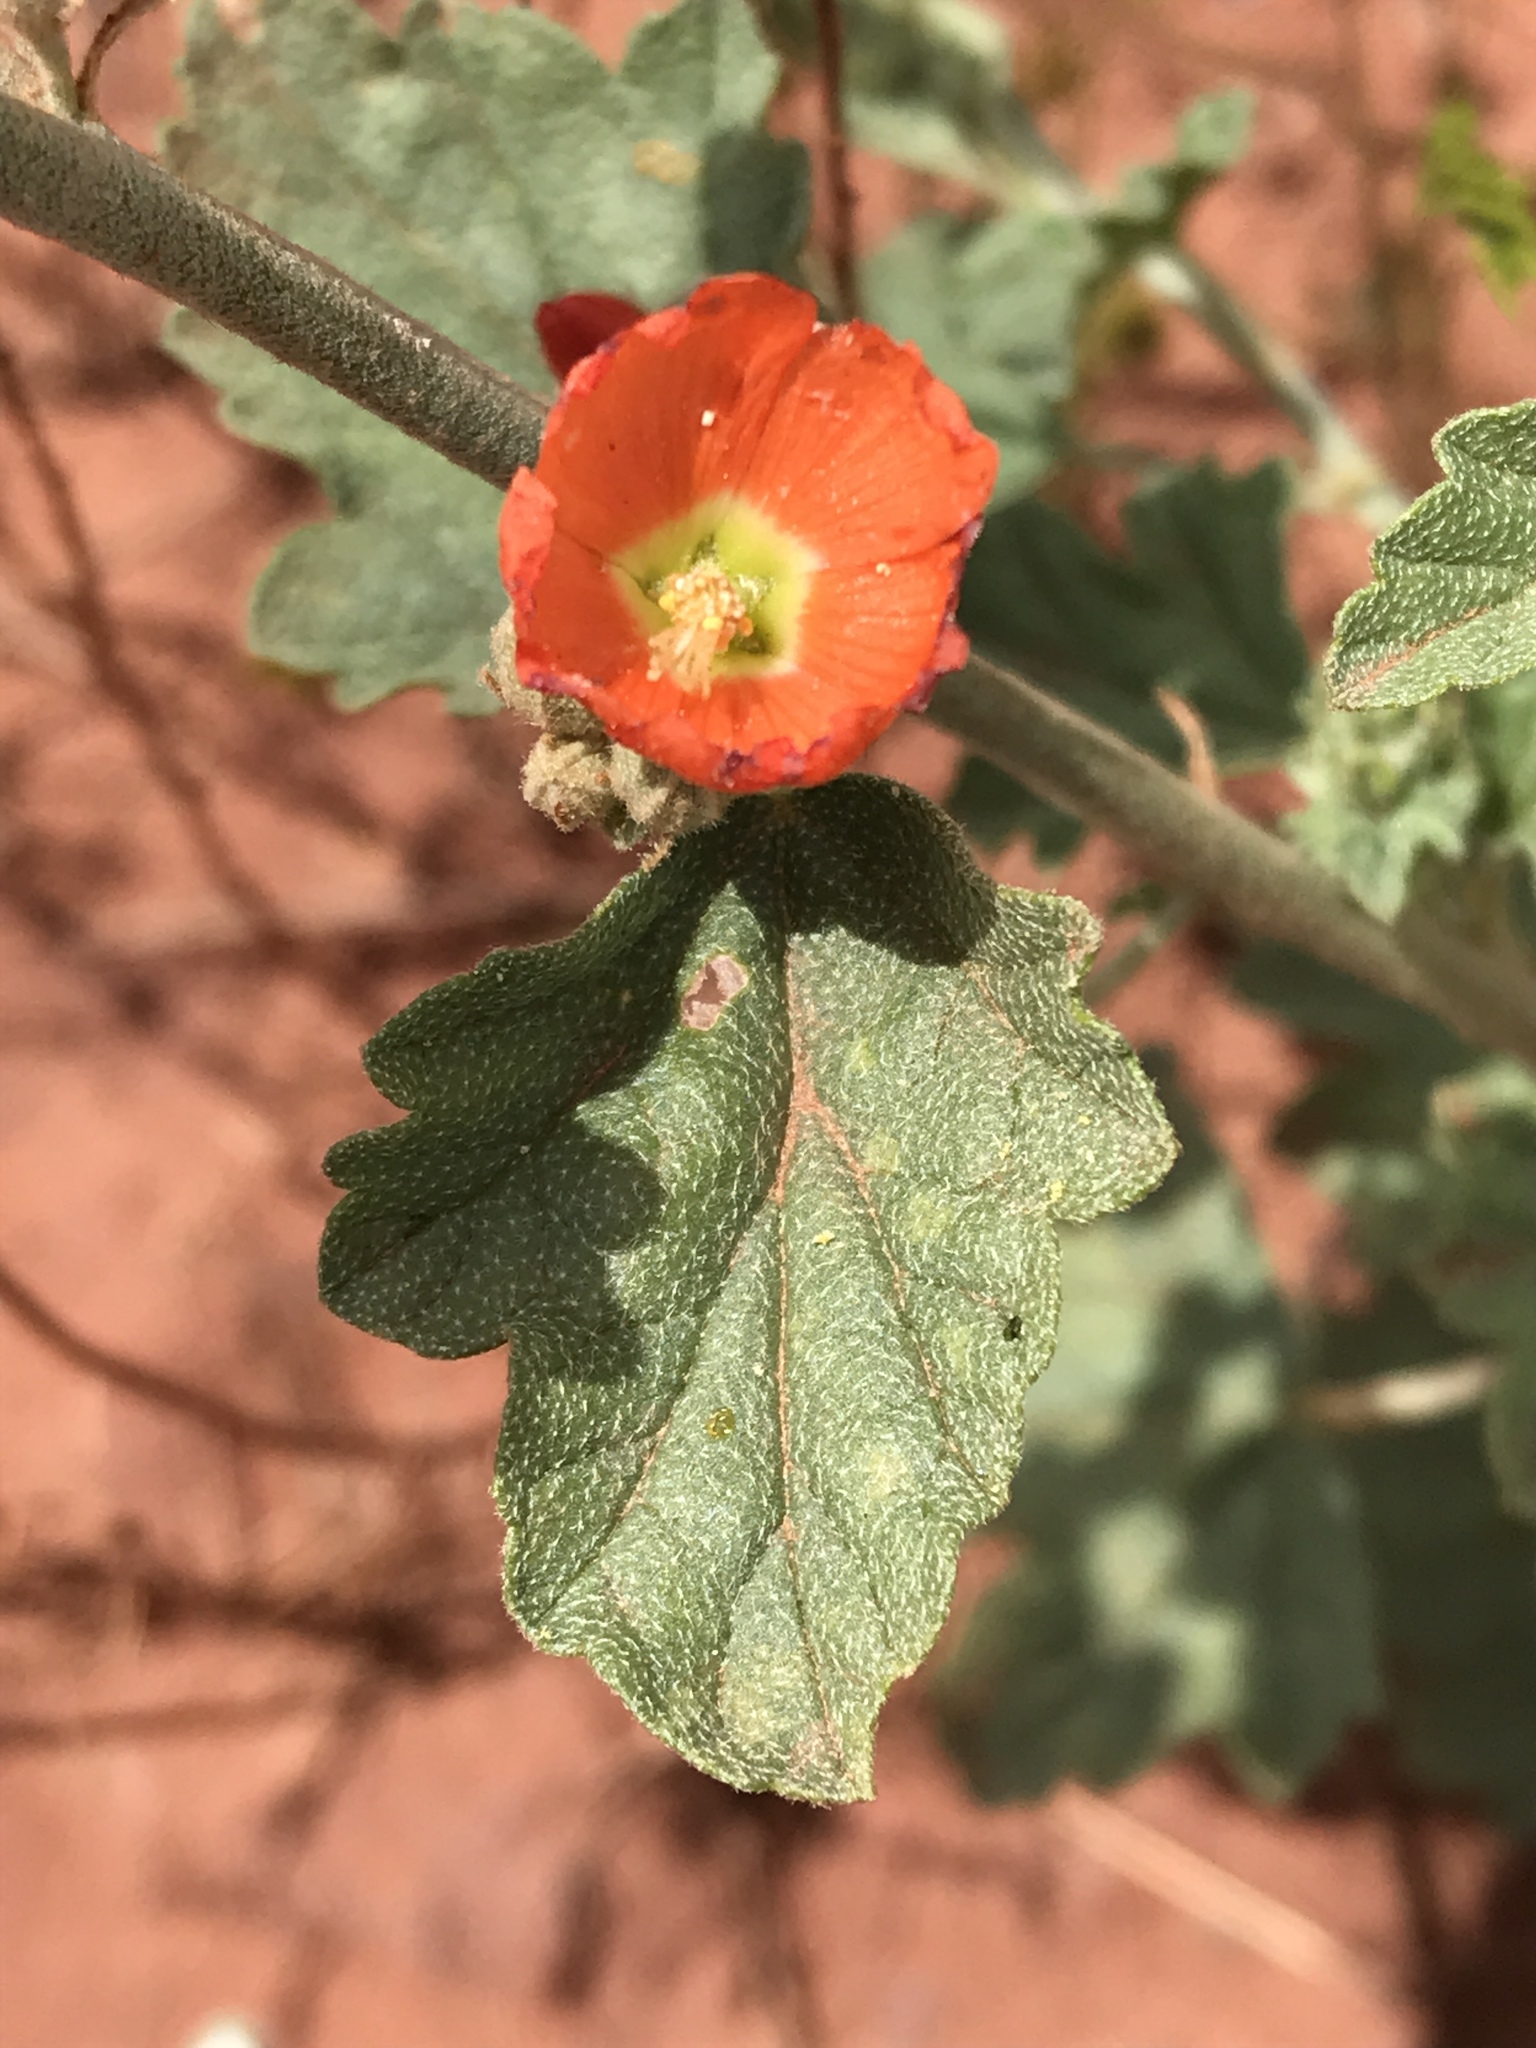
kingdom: Plantae
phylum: Tracheophyta
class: Magnoliopsida
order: Malvales
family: Malvaceae
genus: Sphaeralcea
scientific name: Sphaeralcea parvifolia
